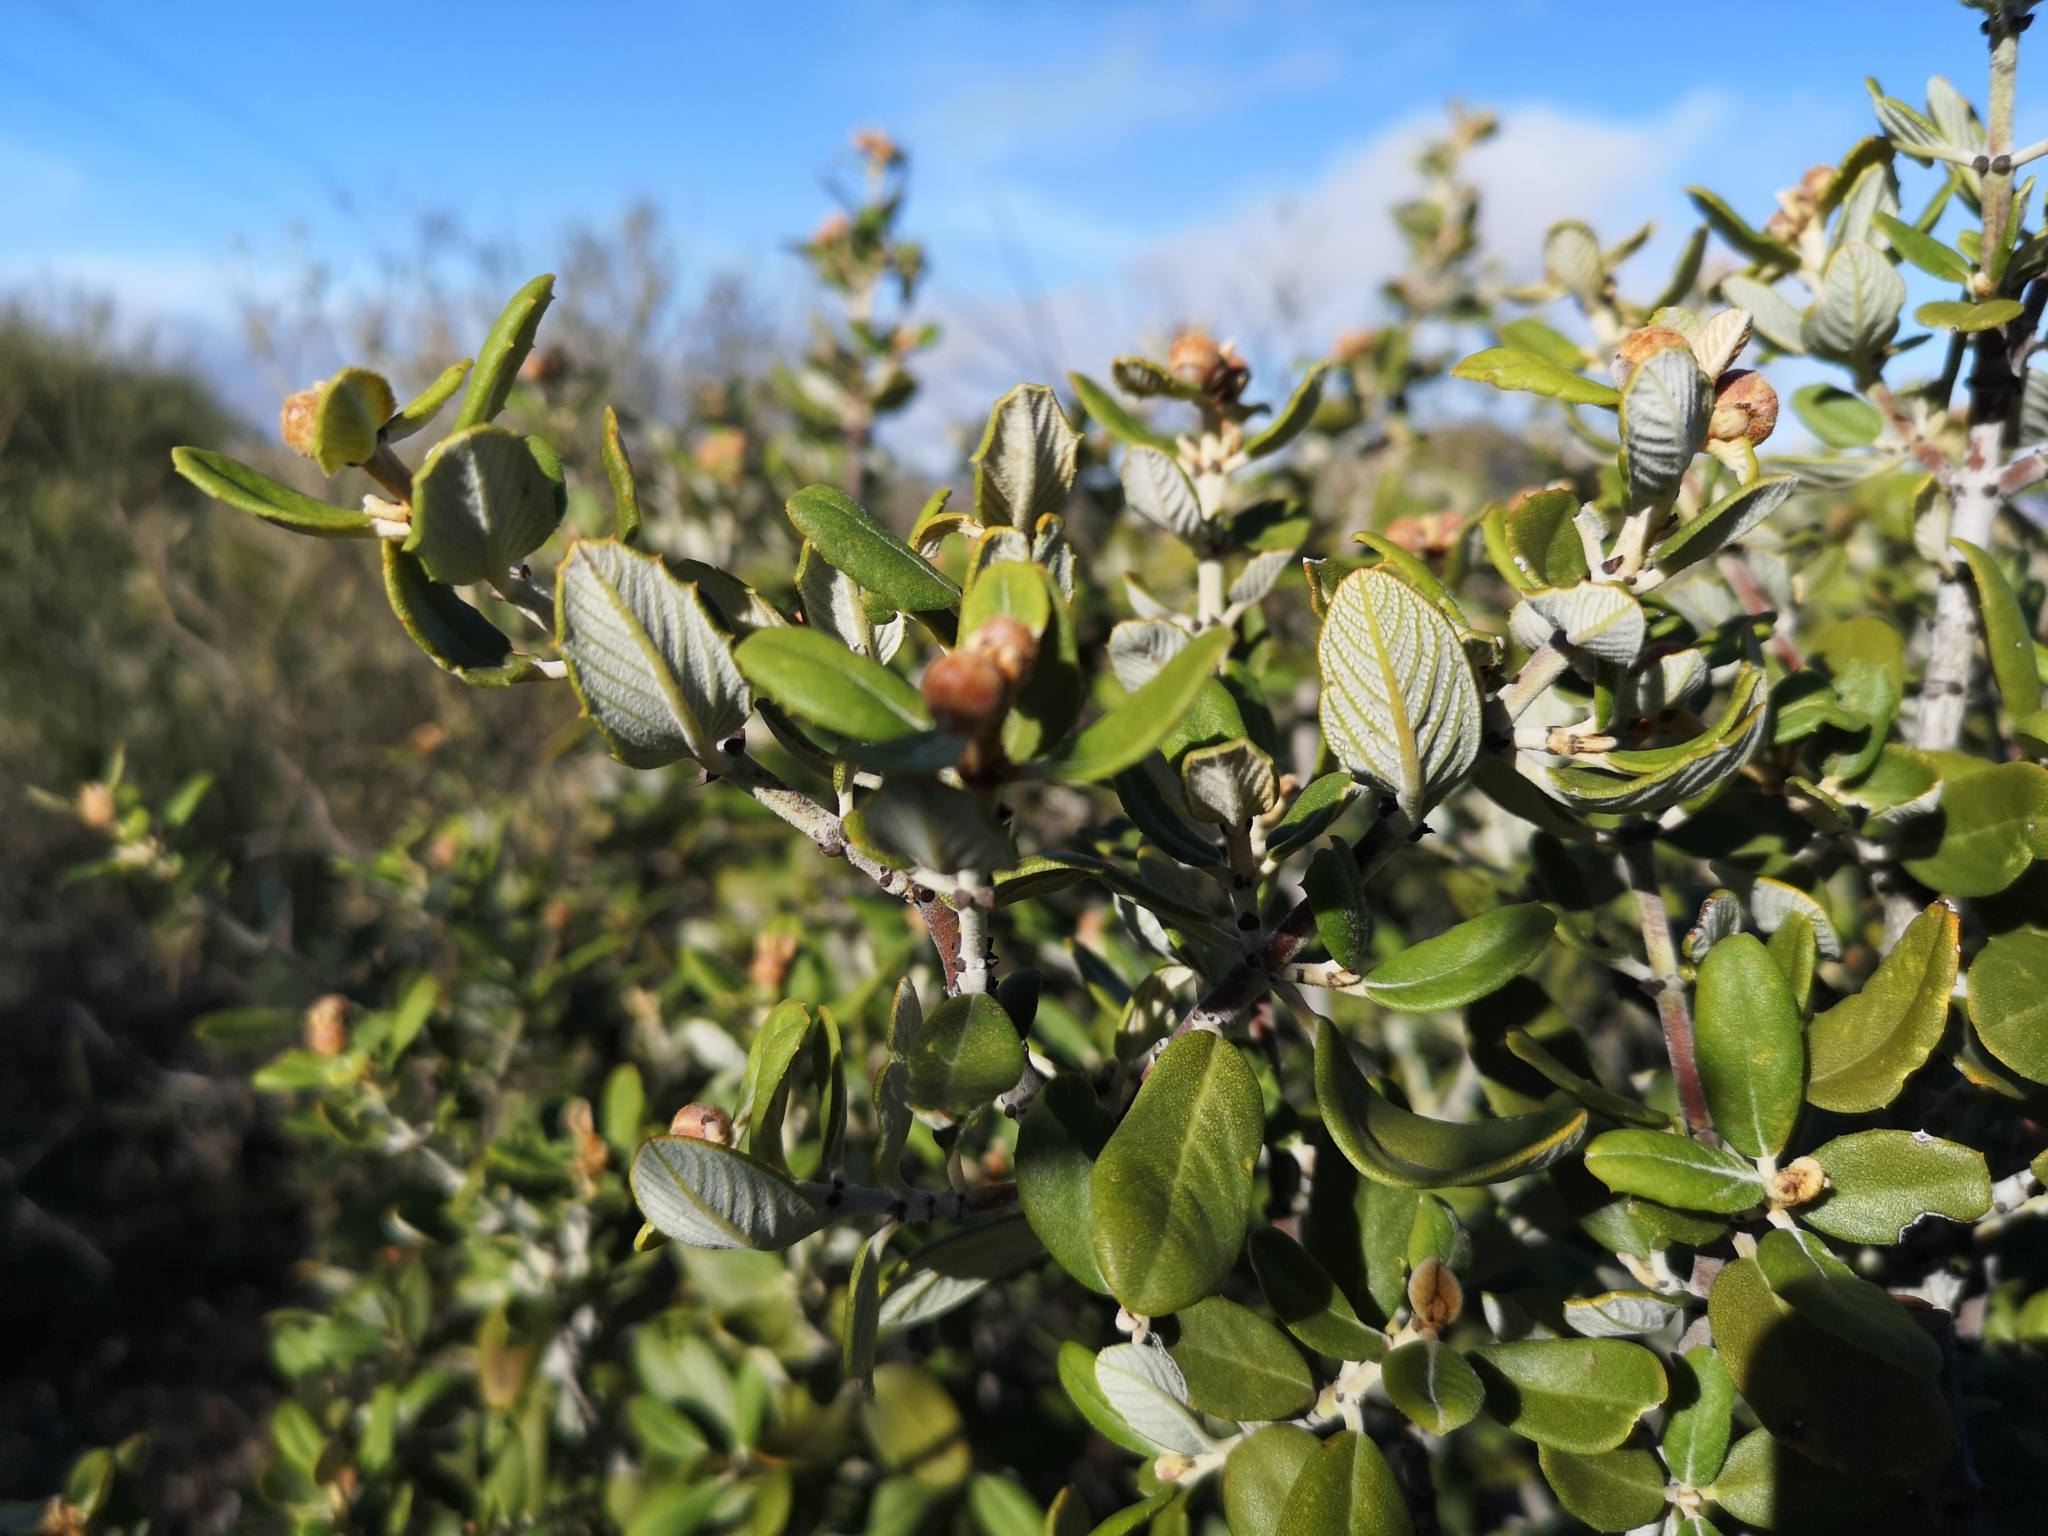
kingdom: Plantae
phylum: Tracheophyta
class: Magnoliopsida
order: Rosales
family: Rhamnaceae
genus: Ceanothus
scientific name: Ceanothus crassifolius
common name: Hoaryleaf ceanothus
